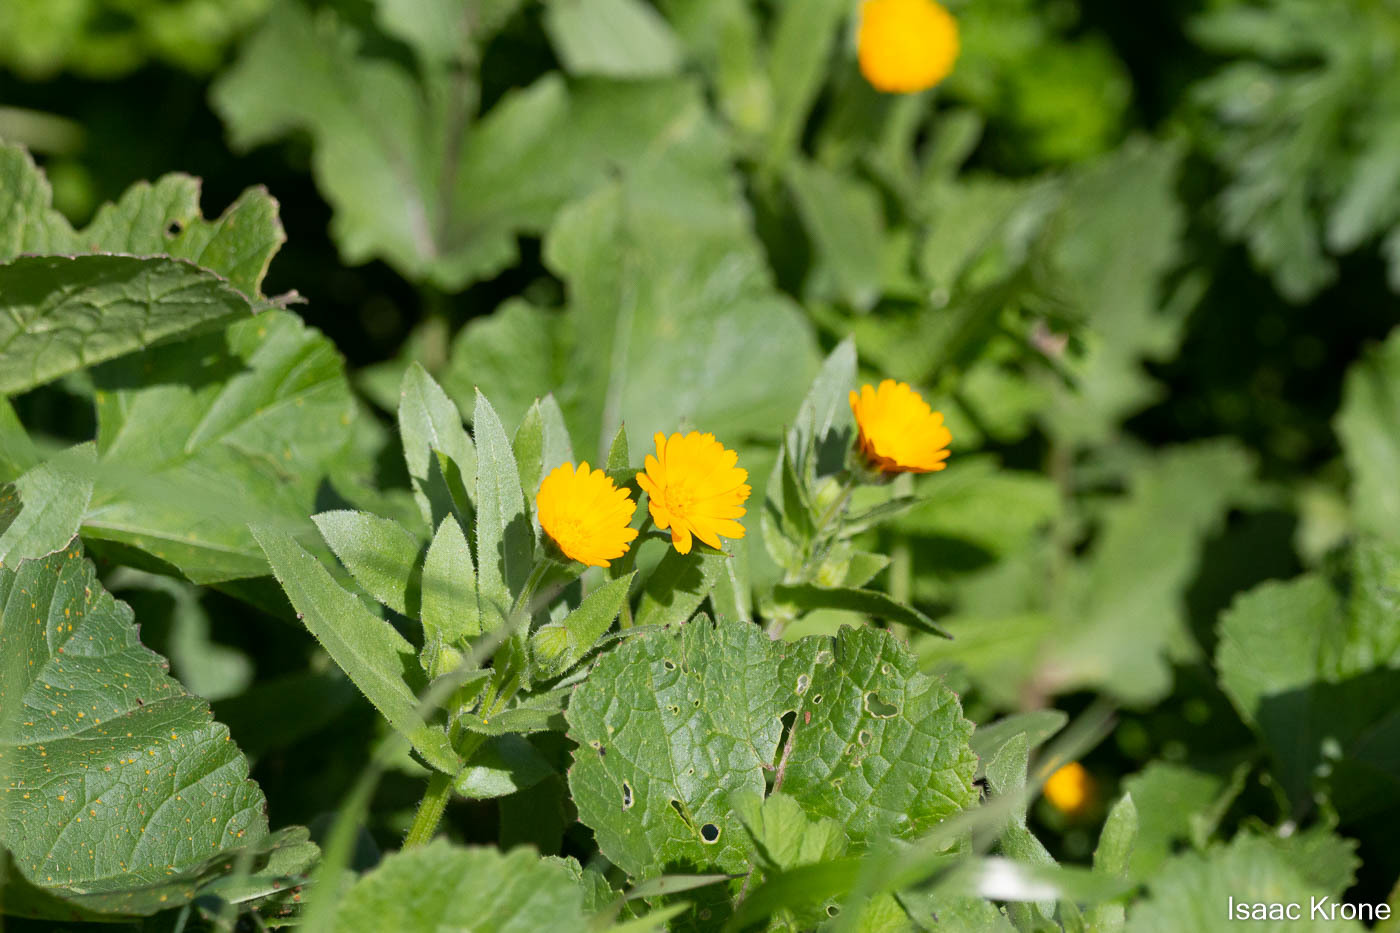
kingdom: Plantae
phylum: Tracheophyta
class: Magnoliopsida
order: Asterales
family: Asteraceae
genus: Calendula
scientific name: Calendula arvensis
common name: Field marigold
